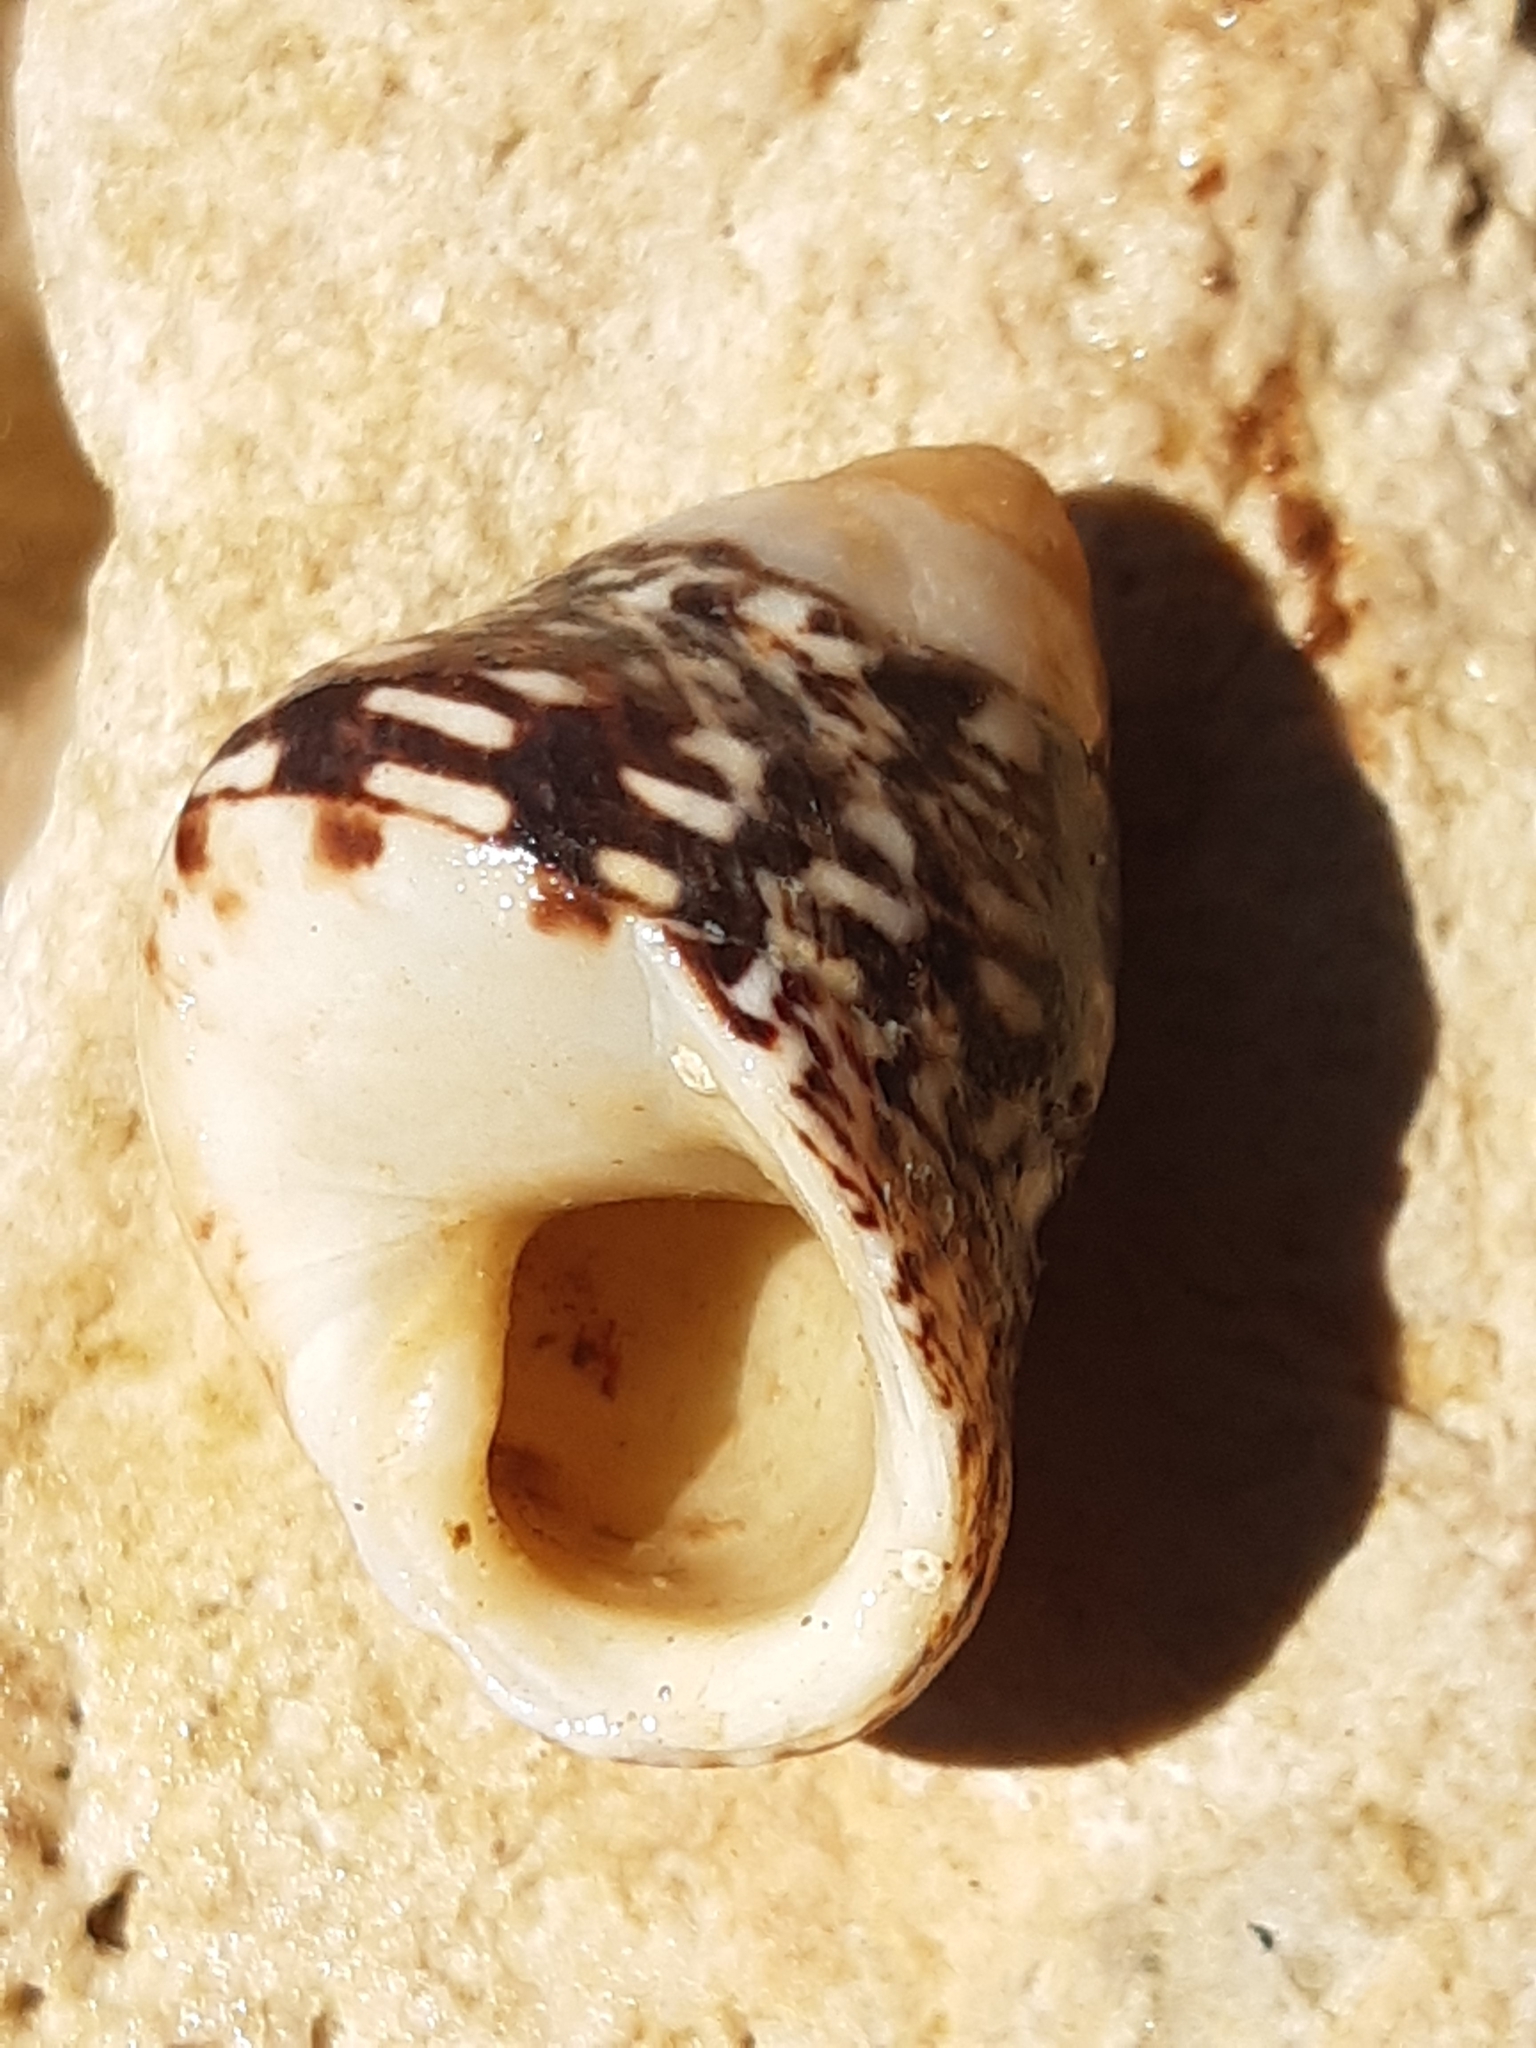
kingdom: Animalia
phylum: Mollusca
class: Gastropoda
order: Trochida
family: Trochidae
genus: Phorcus
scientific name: Phorcus articulatus
